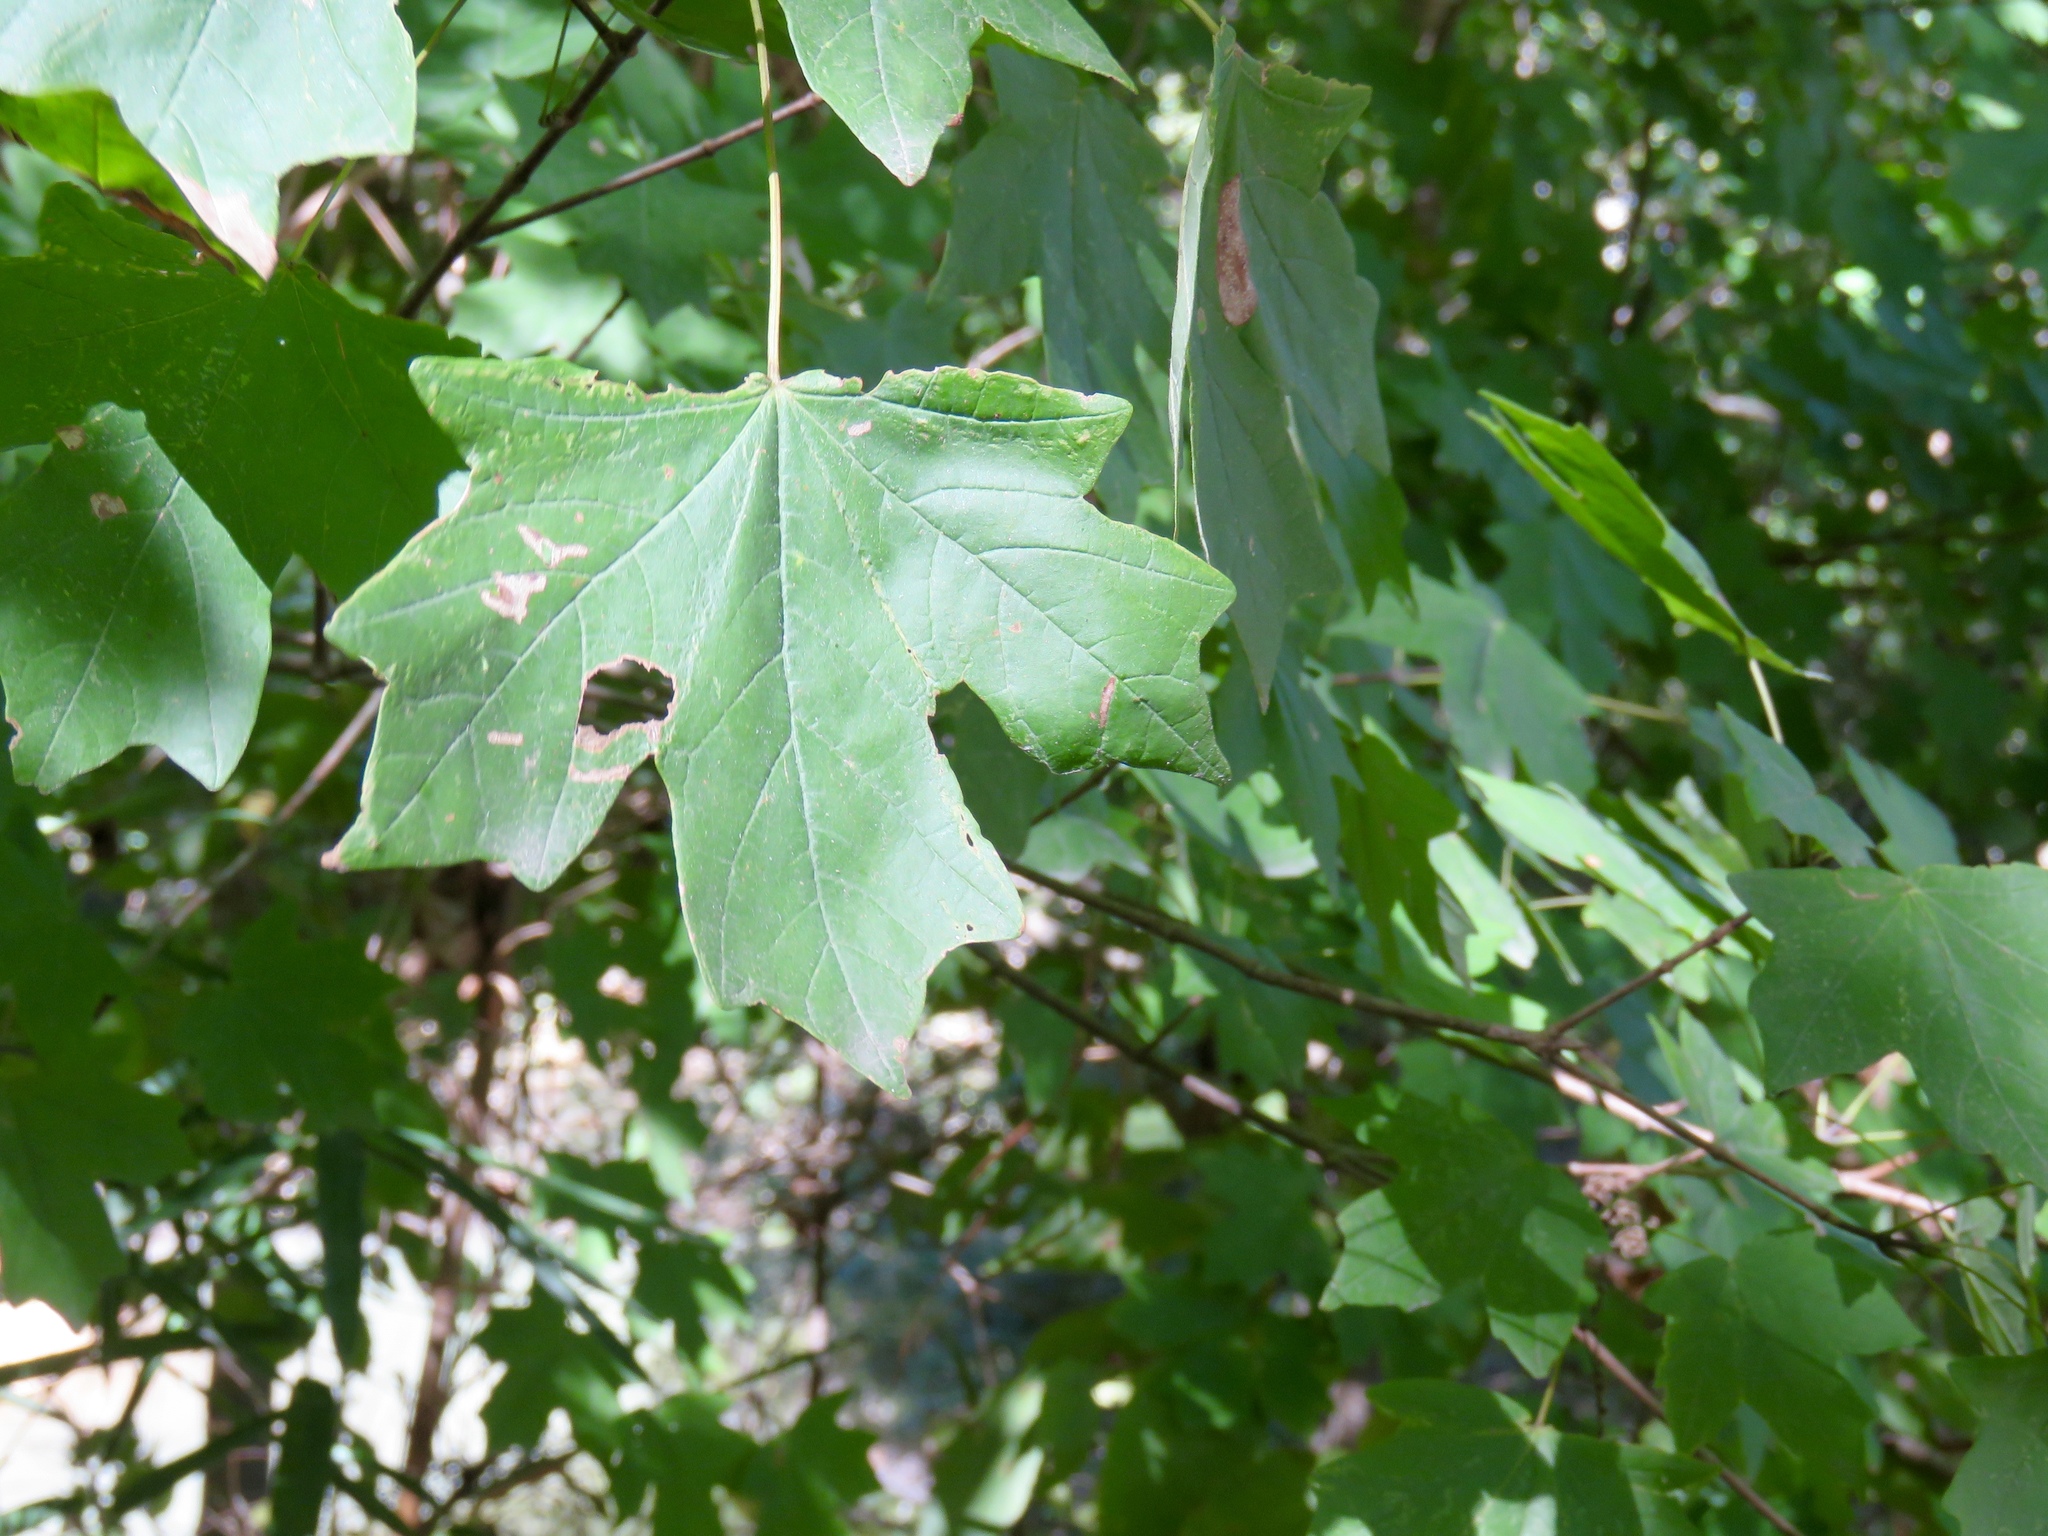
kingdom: Plantae
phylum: Tracheophyta
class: Magnoliopsida
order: Sapindales
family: Sapindaceae
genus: Acer
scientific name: Acer floridanum
